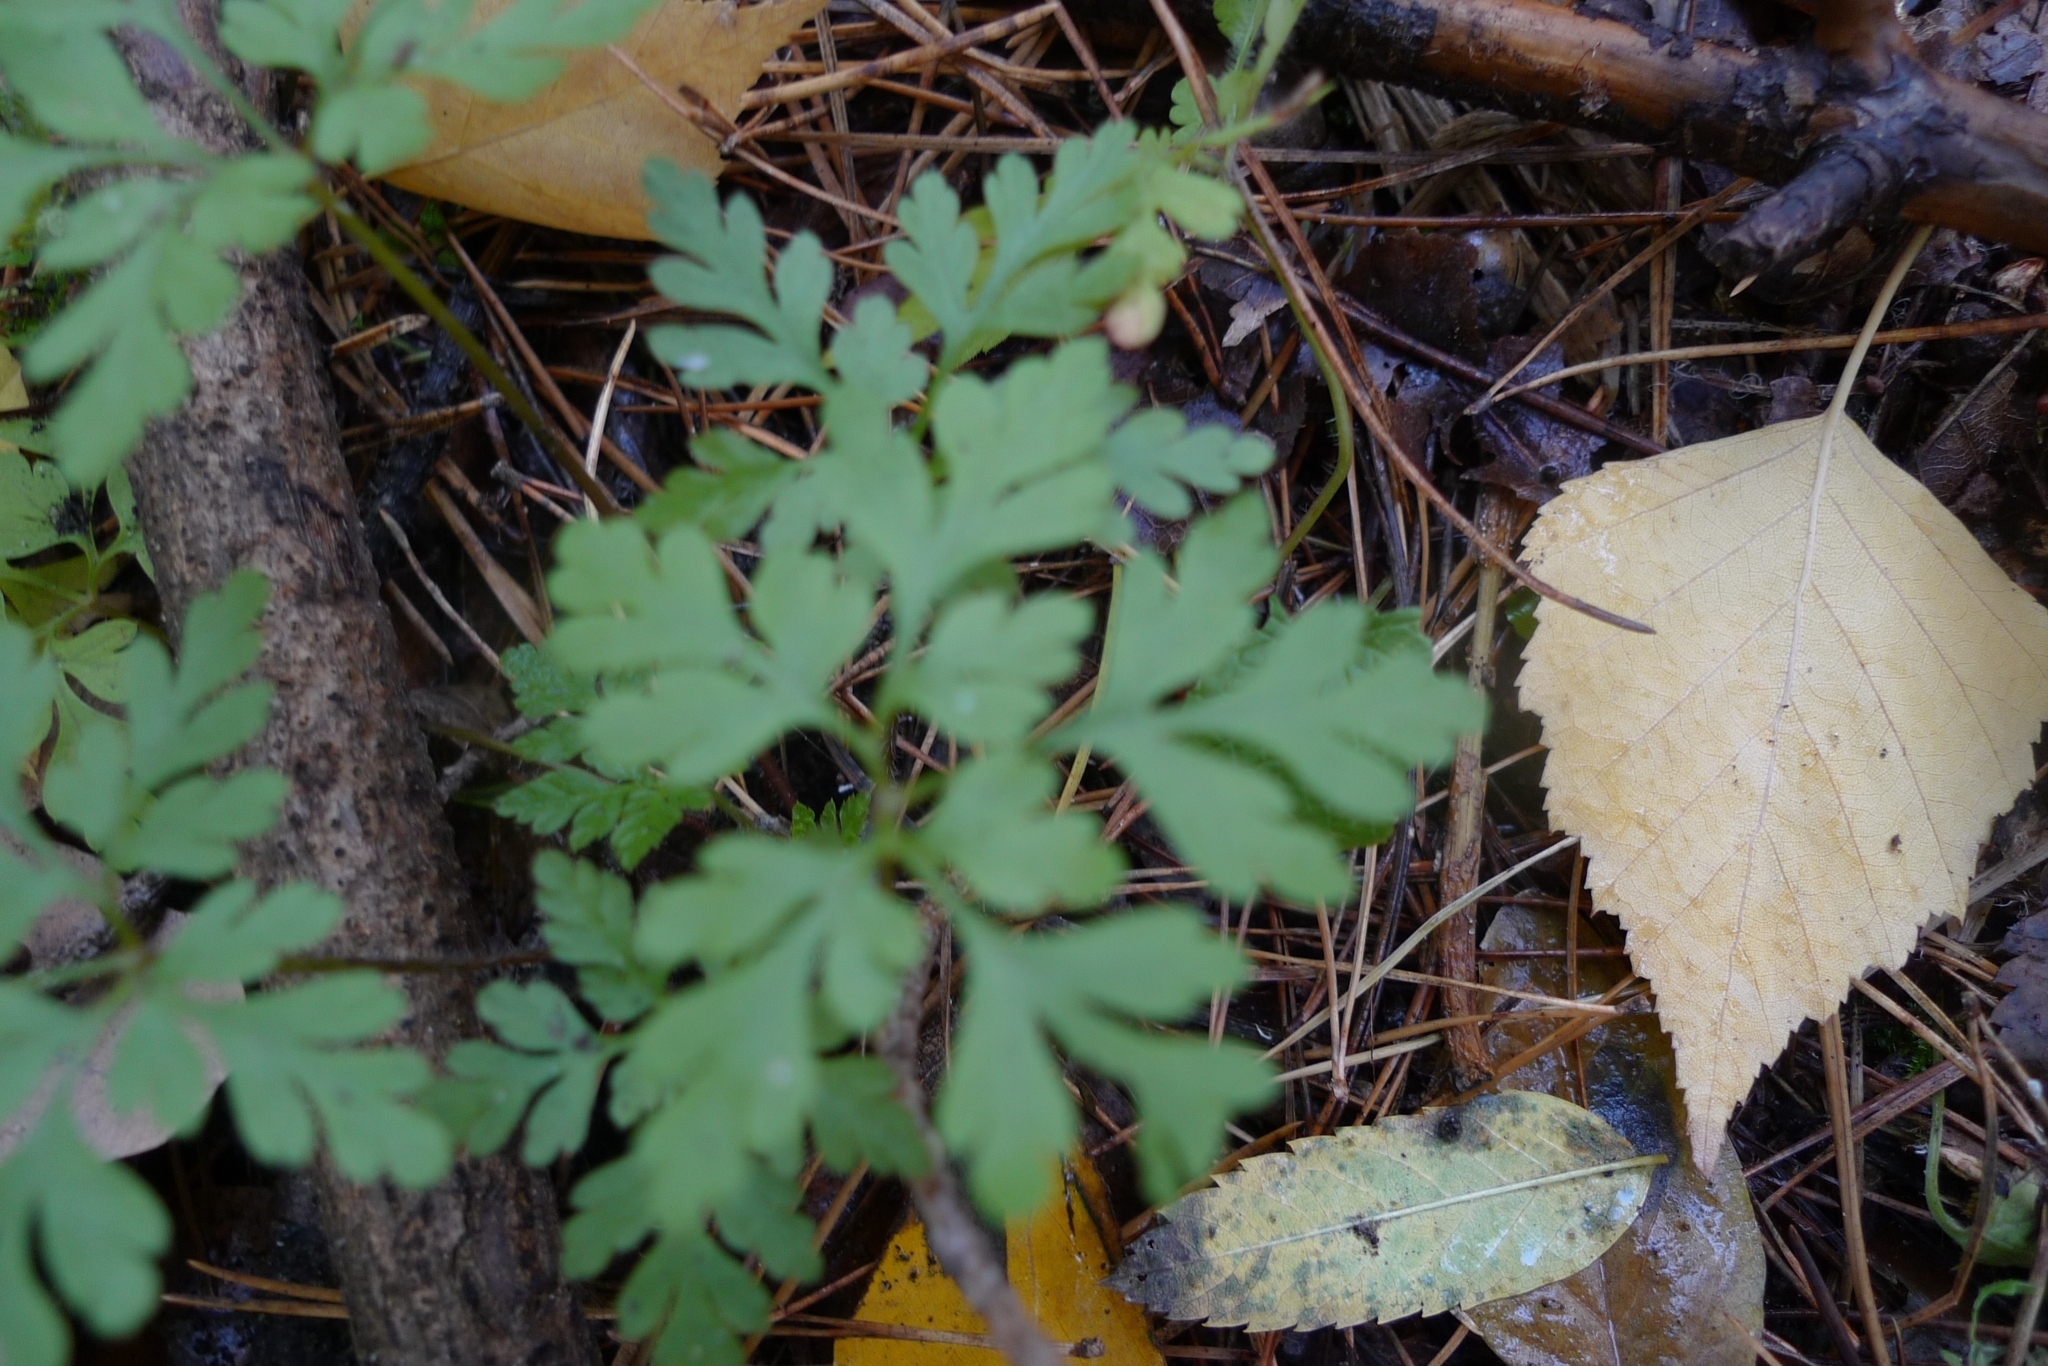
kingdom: Plantae
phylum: Tracheophyta
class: Magnoliopsida
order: Geraniales
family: Geraniaceae
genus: Geranium
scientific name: Geranium robertianum
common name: Herb-robert
